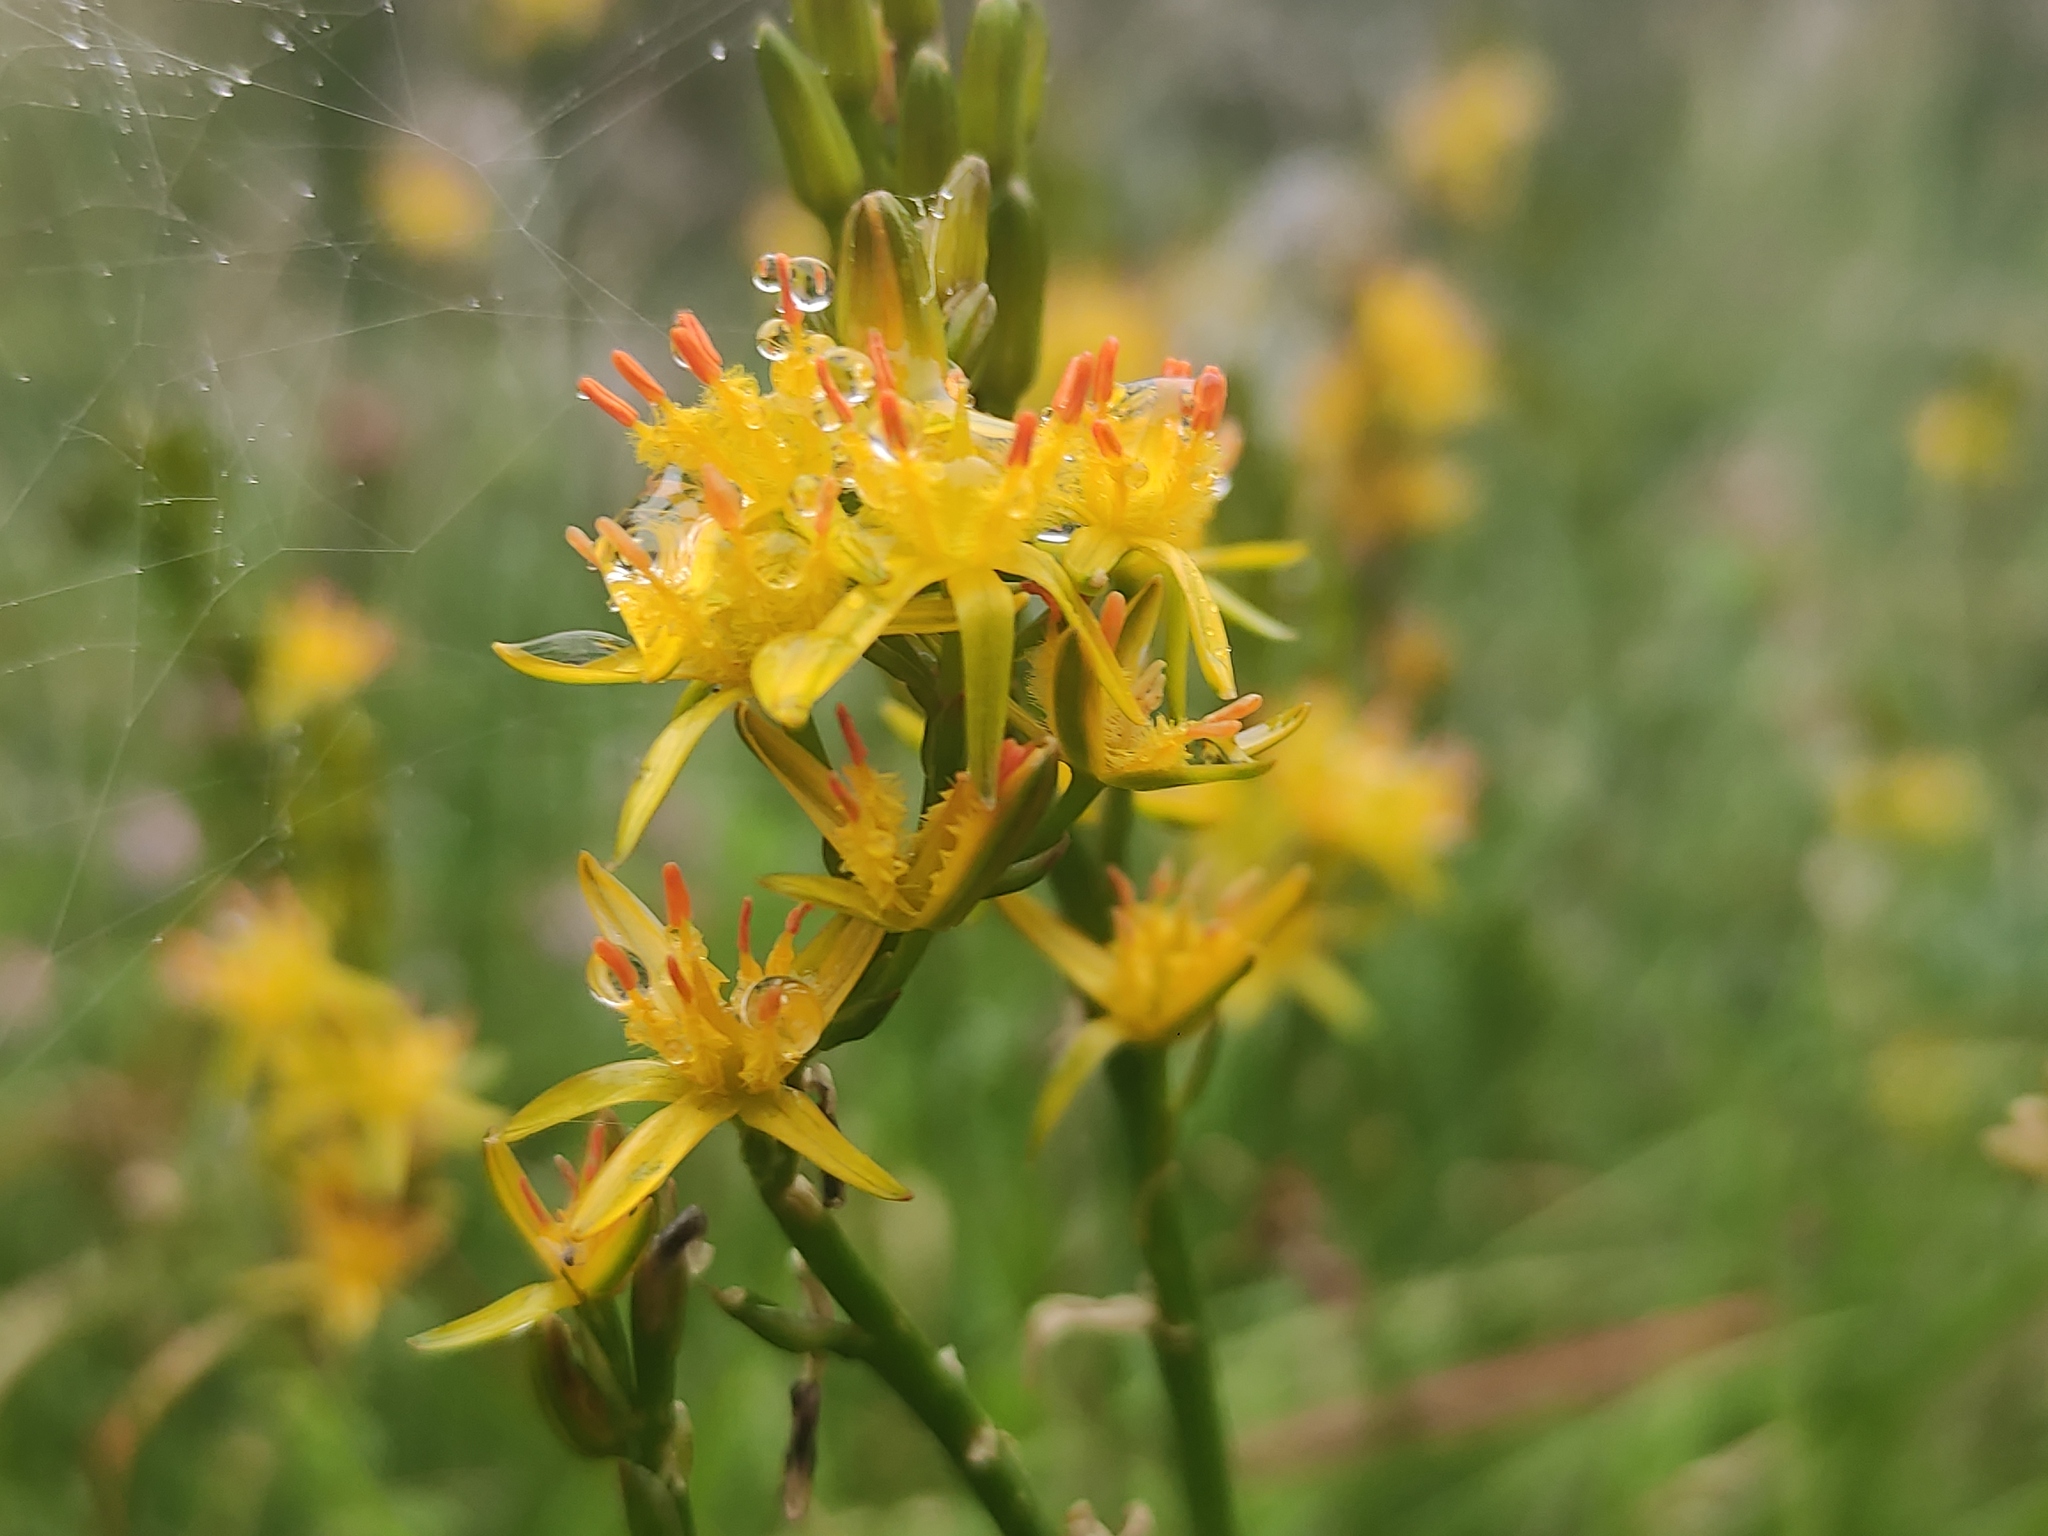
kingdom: Plantae
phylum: Tracheophyta
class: Liliopsida
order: Dioscoreales
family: Nartheciaceae
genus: Narthecium
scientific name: Narthecium ossifragum
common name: Bog asphodel
